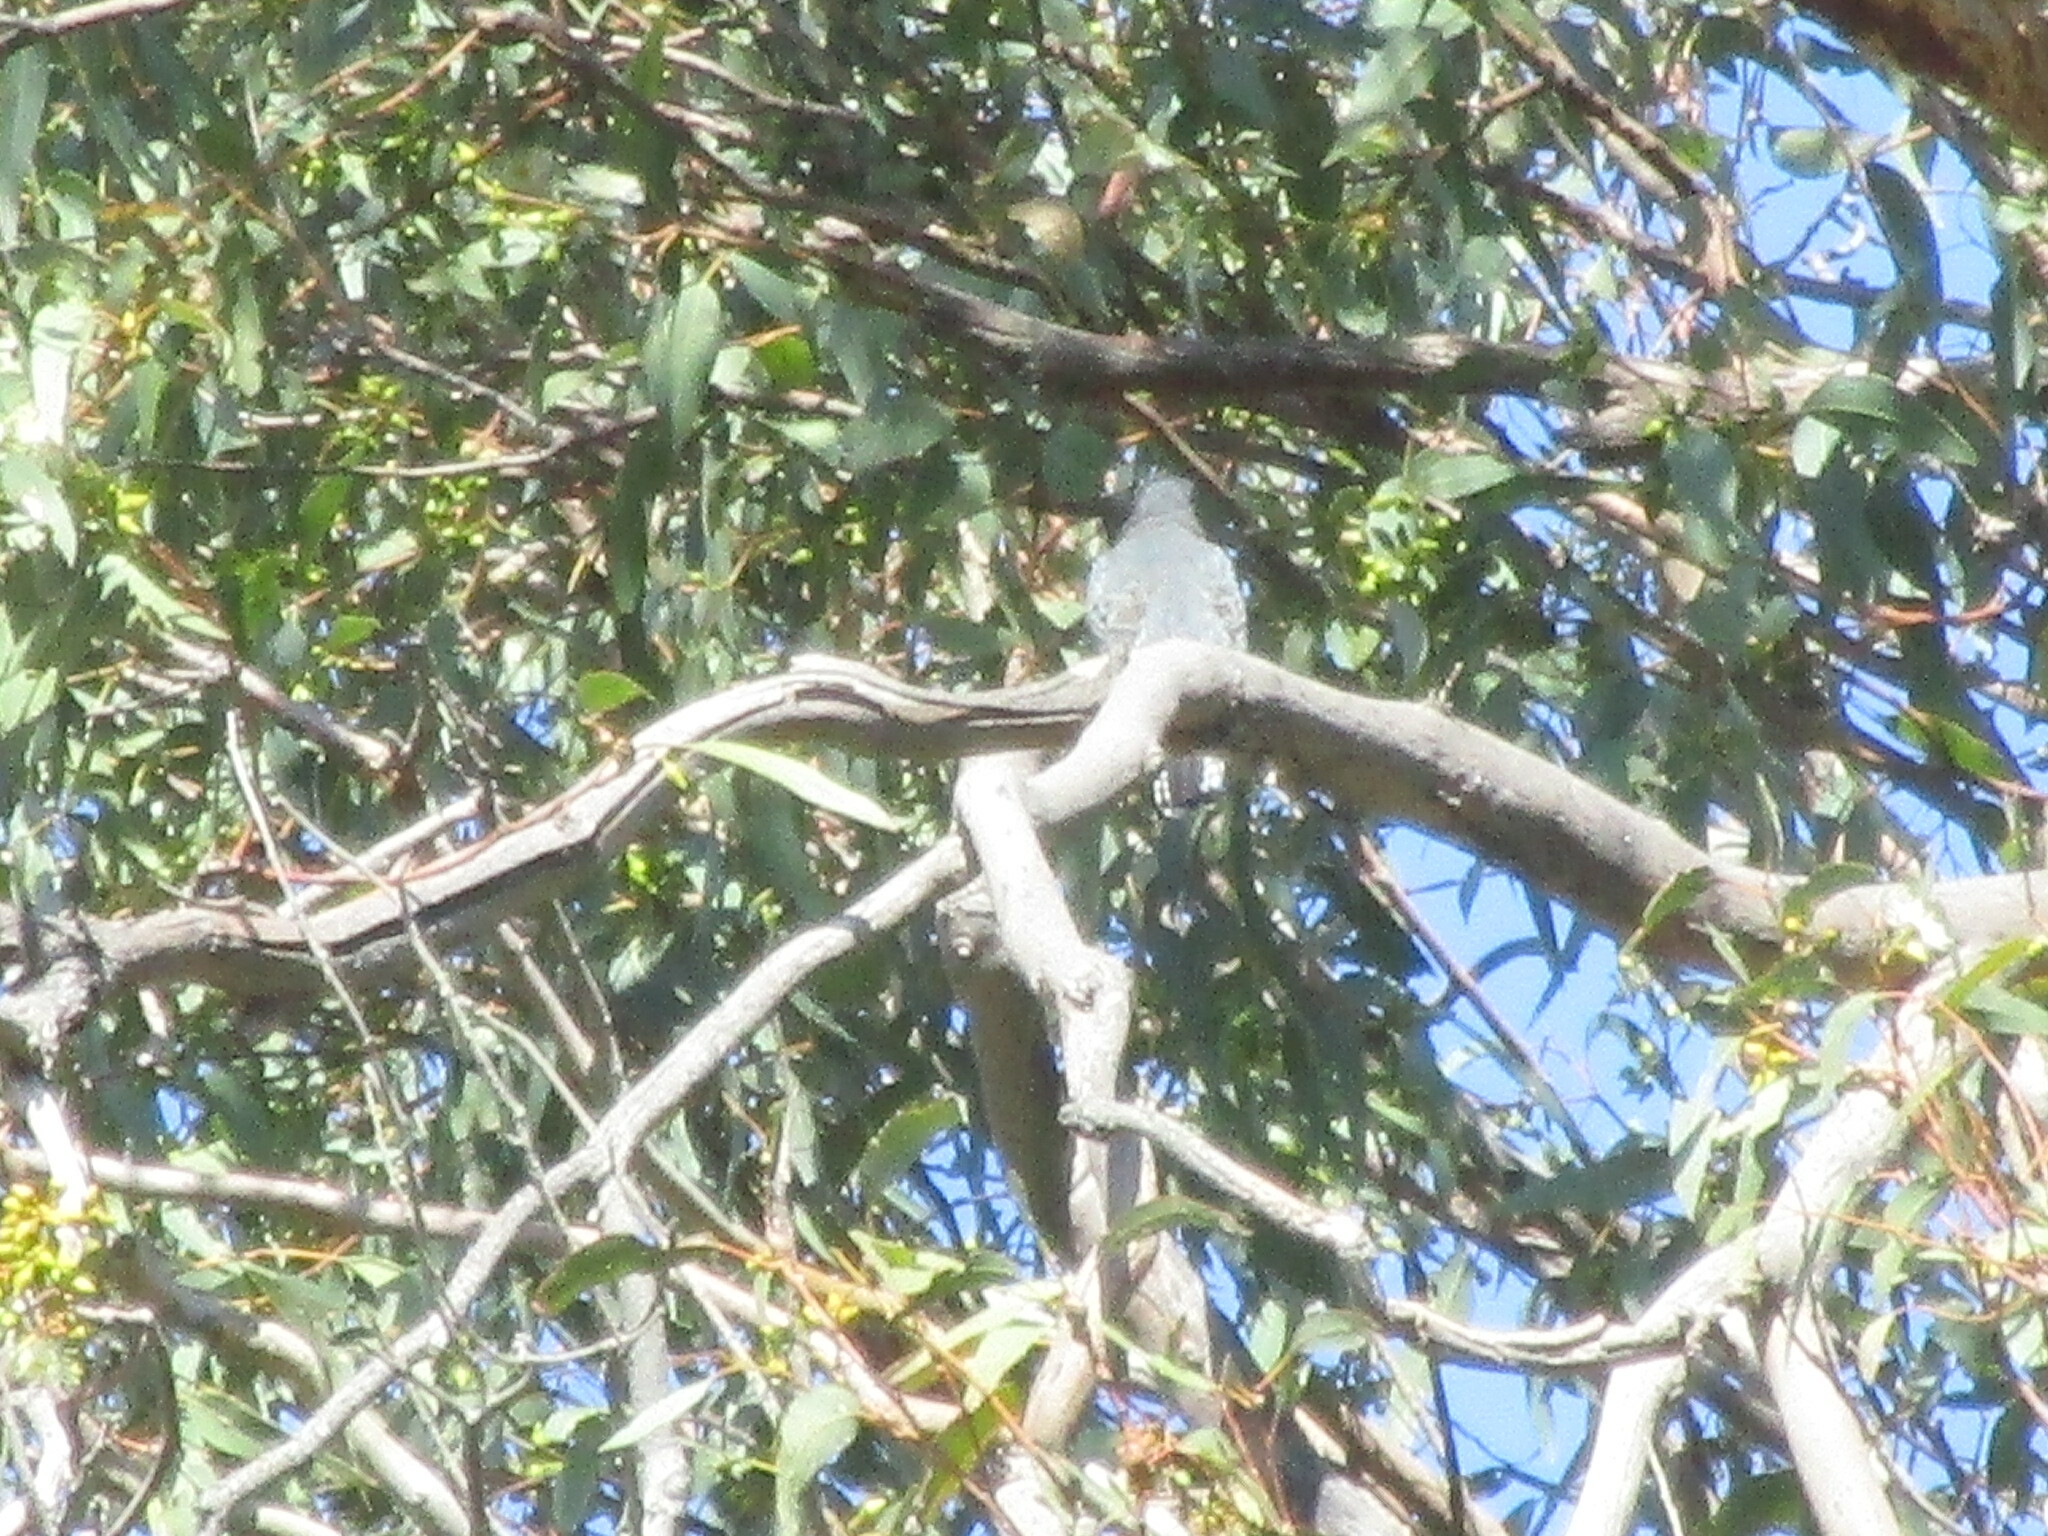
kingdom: Animalia
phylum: Chordata
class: Aves
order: Cuculiformes
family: Cuculidae
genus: Cacomantis
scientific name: Cacomantis flabelliformis
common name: Fan-tailed cuckoo
